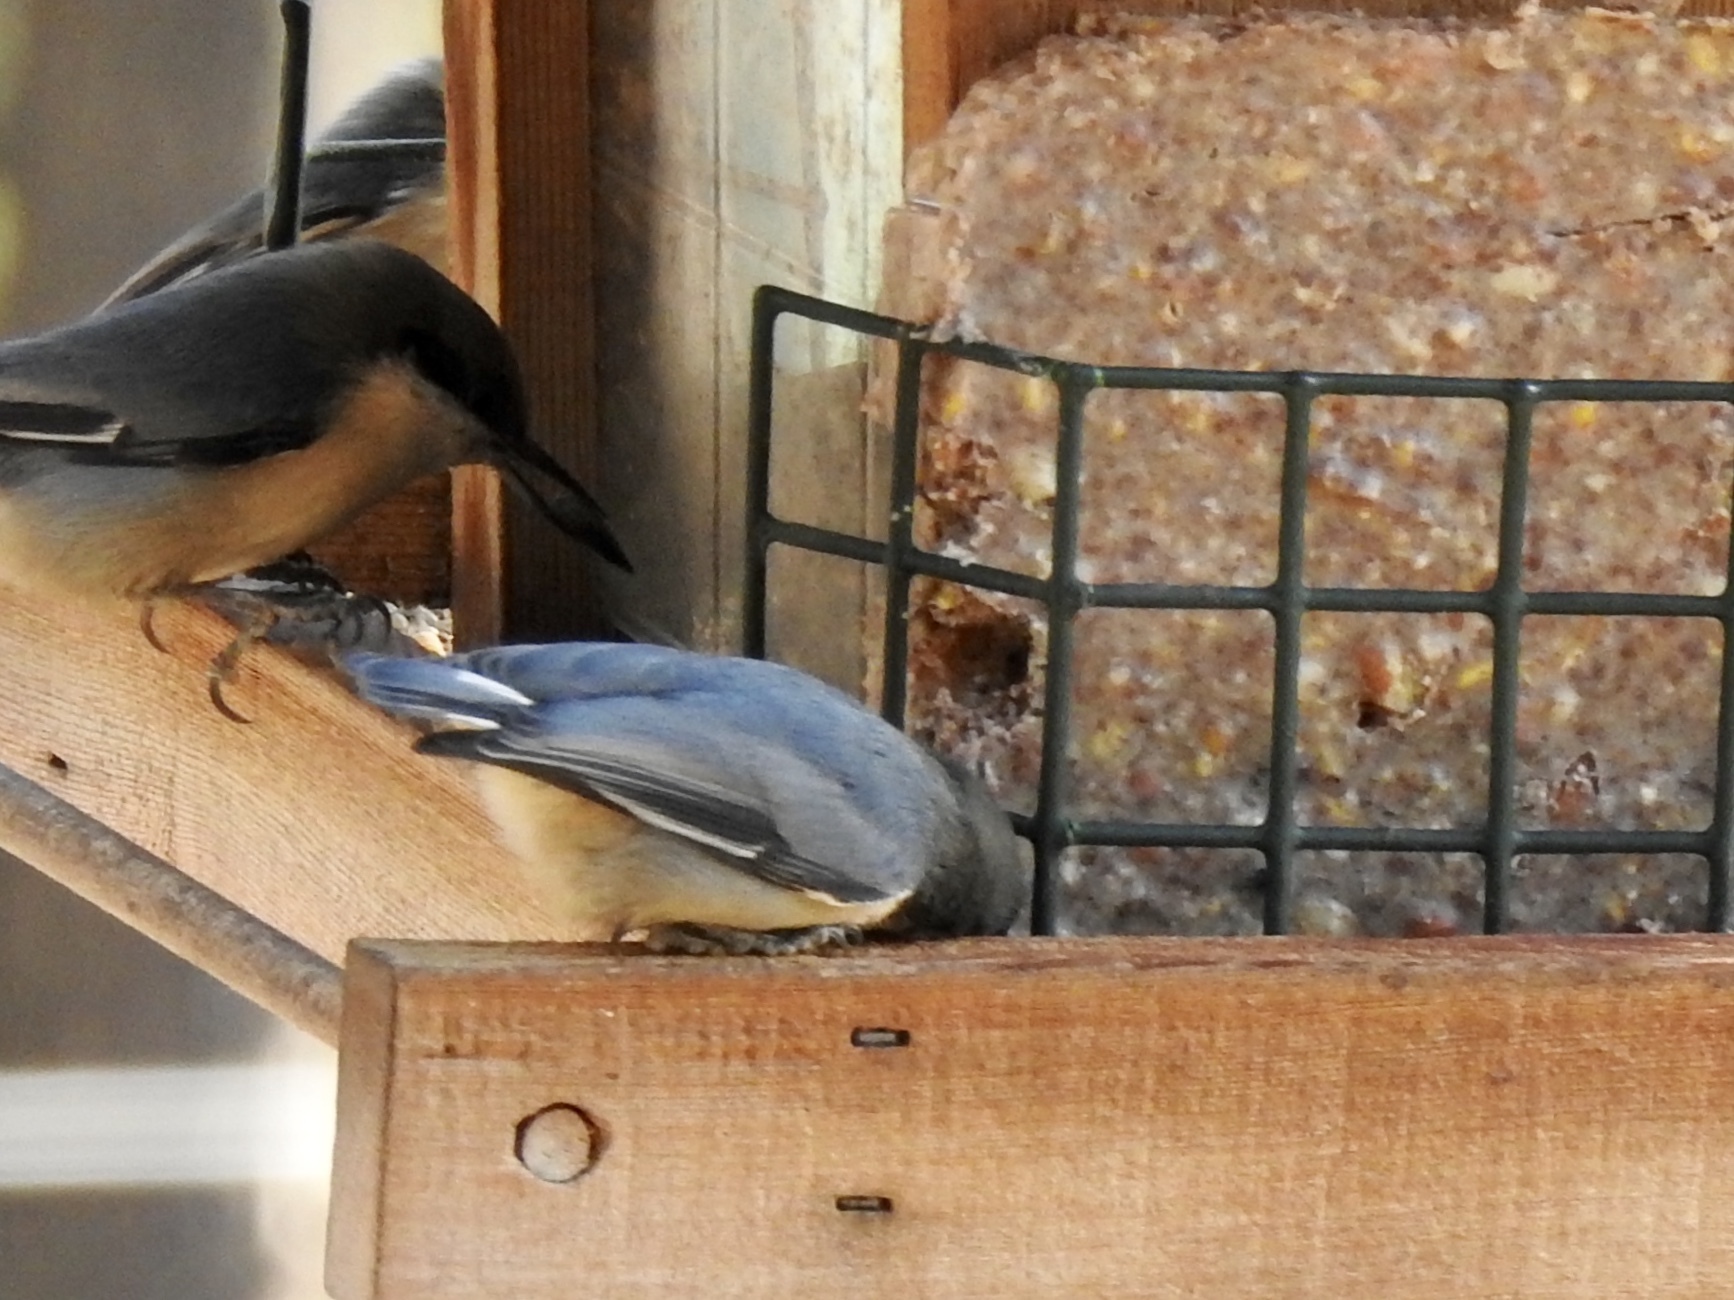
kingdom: Animalia
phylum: Chordata
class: Aves
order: Passeriformes
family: Sittidae
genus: Sitta
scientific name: Sitta pygmaea
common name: Pygmy nuthatch
